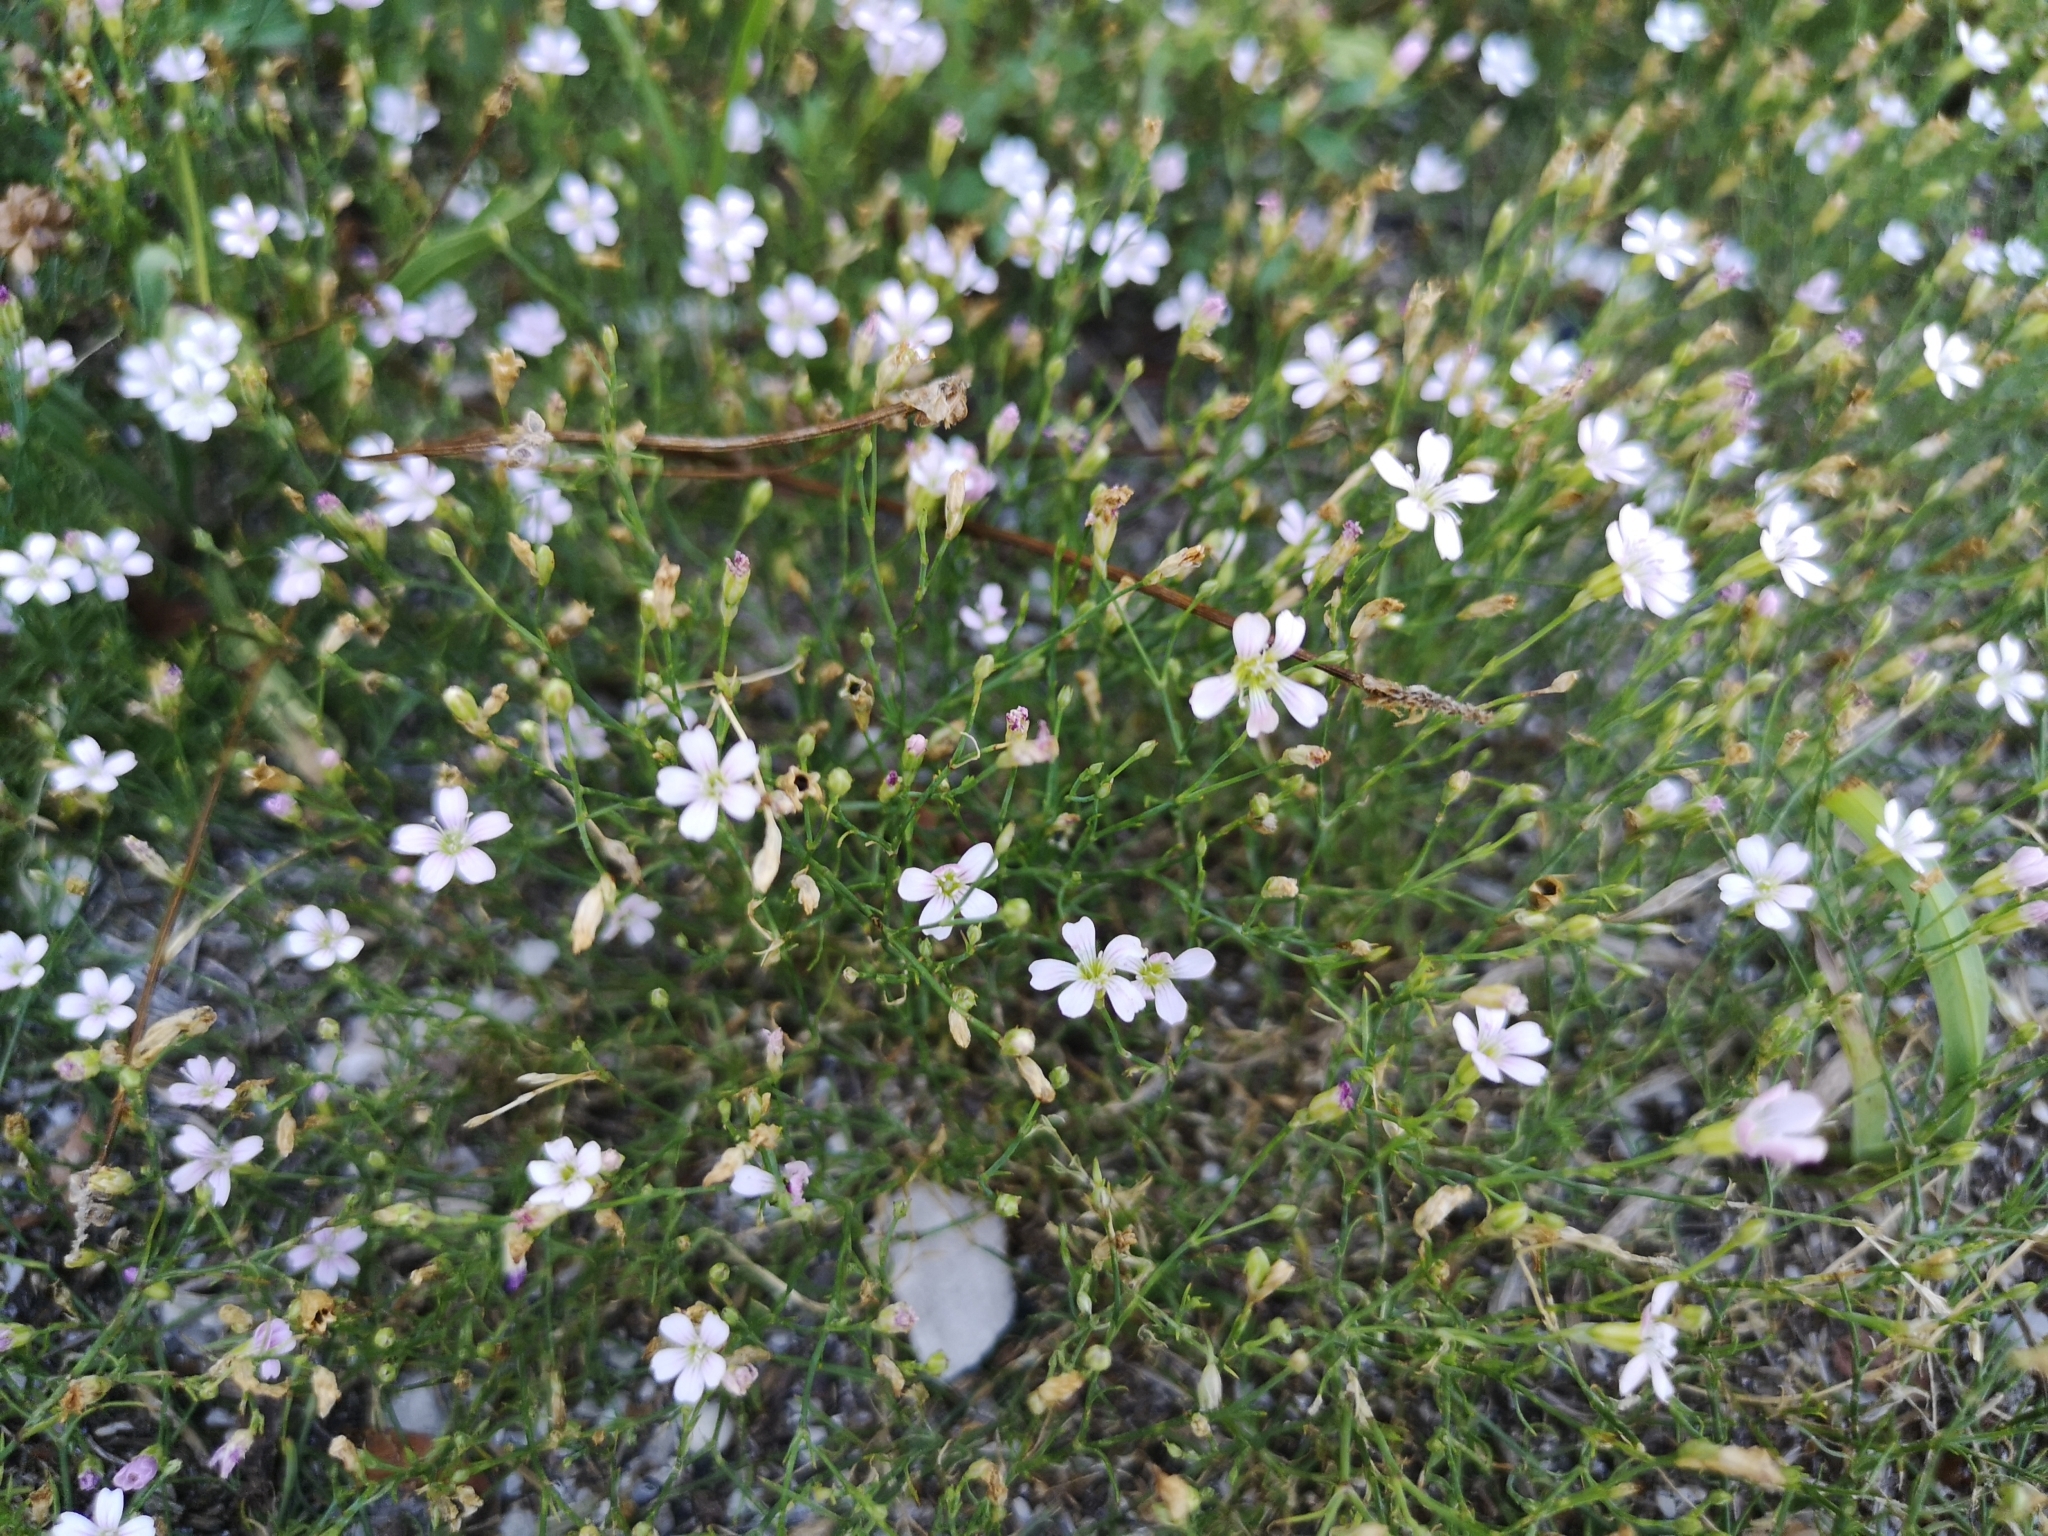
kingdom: Plantae
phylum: Tracheophyta
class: Magnoliopsida
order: Caryophyllales
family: Caryophyllaceae
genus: Petrorhagia
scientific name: Petrorhagia saxifraga
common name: Tunicflower
